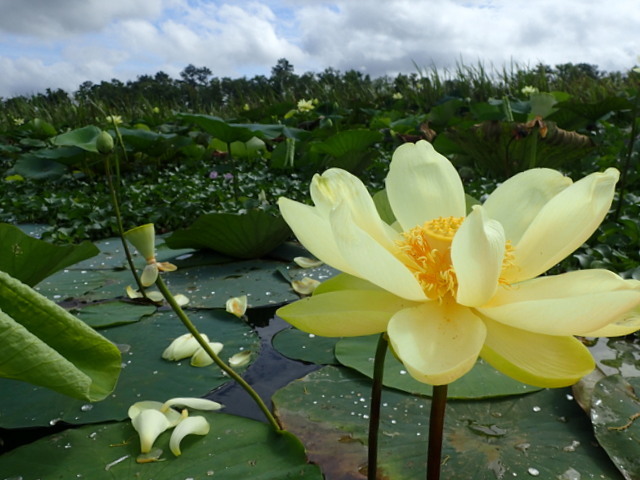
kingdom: Plantae
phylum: Tracheophyta
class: Magnoliopsida
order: Proteales
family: Nelumbonaceae
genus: Nelumbo
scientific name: Nelumbo lutea
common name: American lotus
